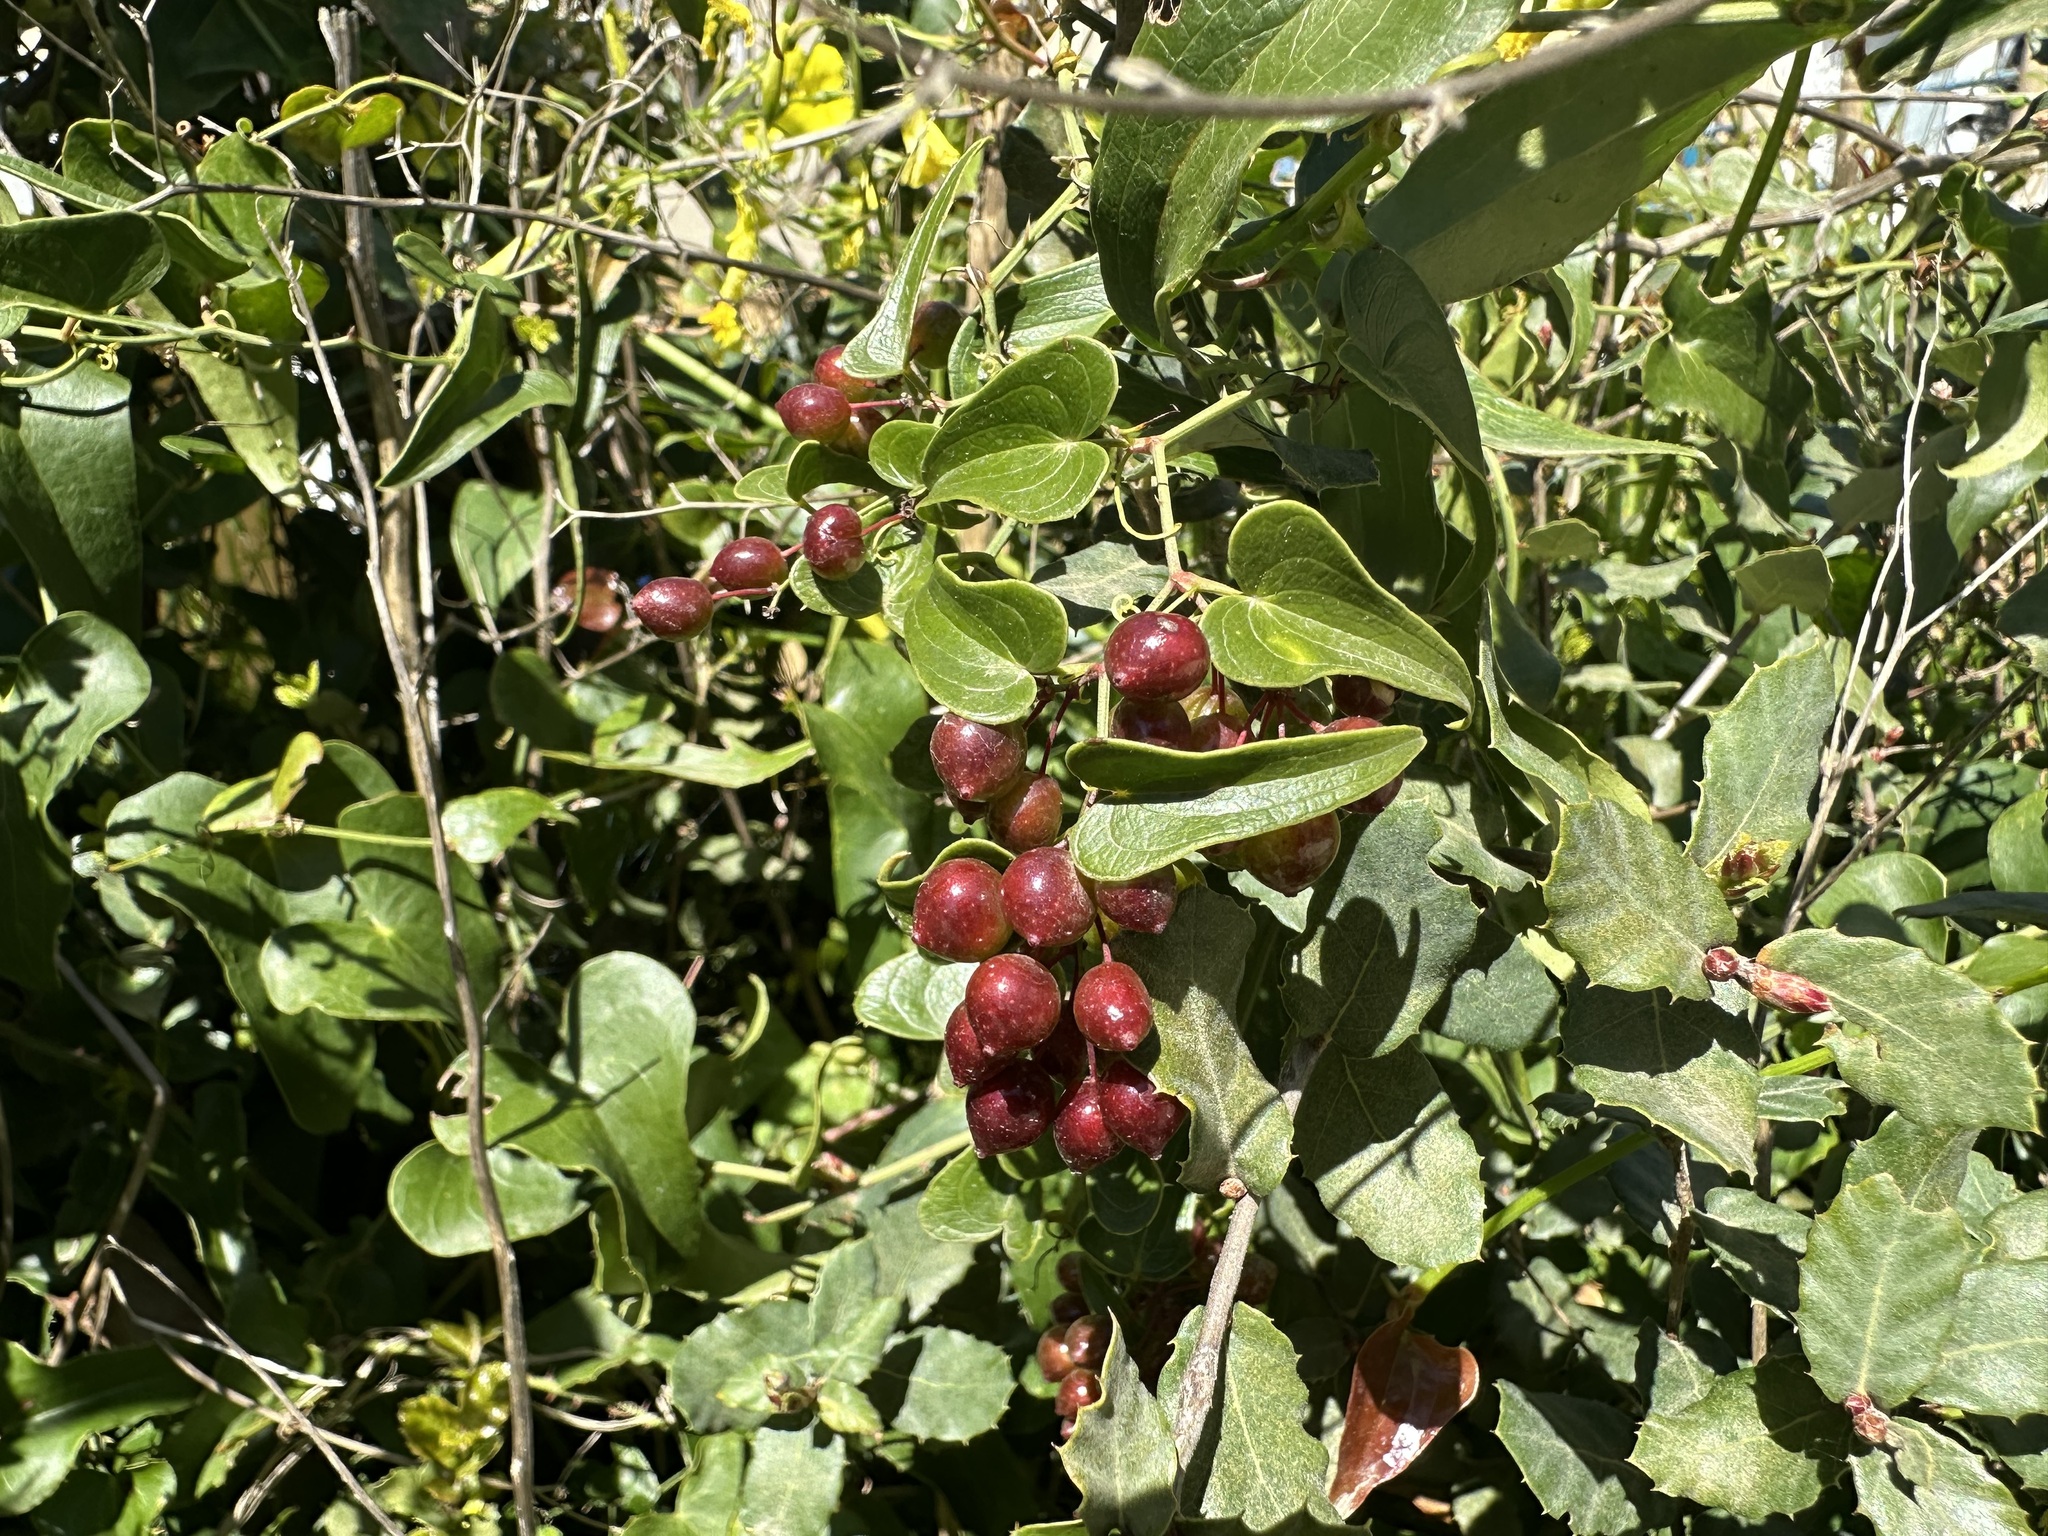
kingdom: Plantae
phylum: Tracheophyta
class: Liliopsida
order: Liliales
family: Smilacaceae
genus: Smilax
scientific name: Smilax aspera
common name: Common smilax
